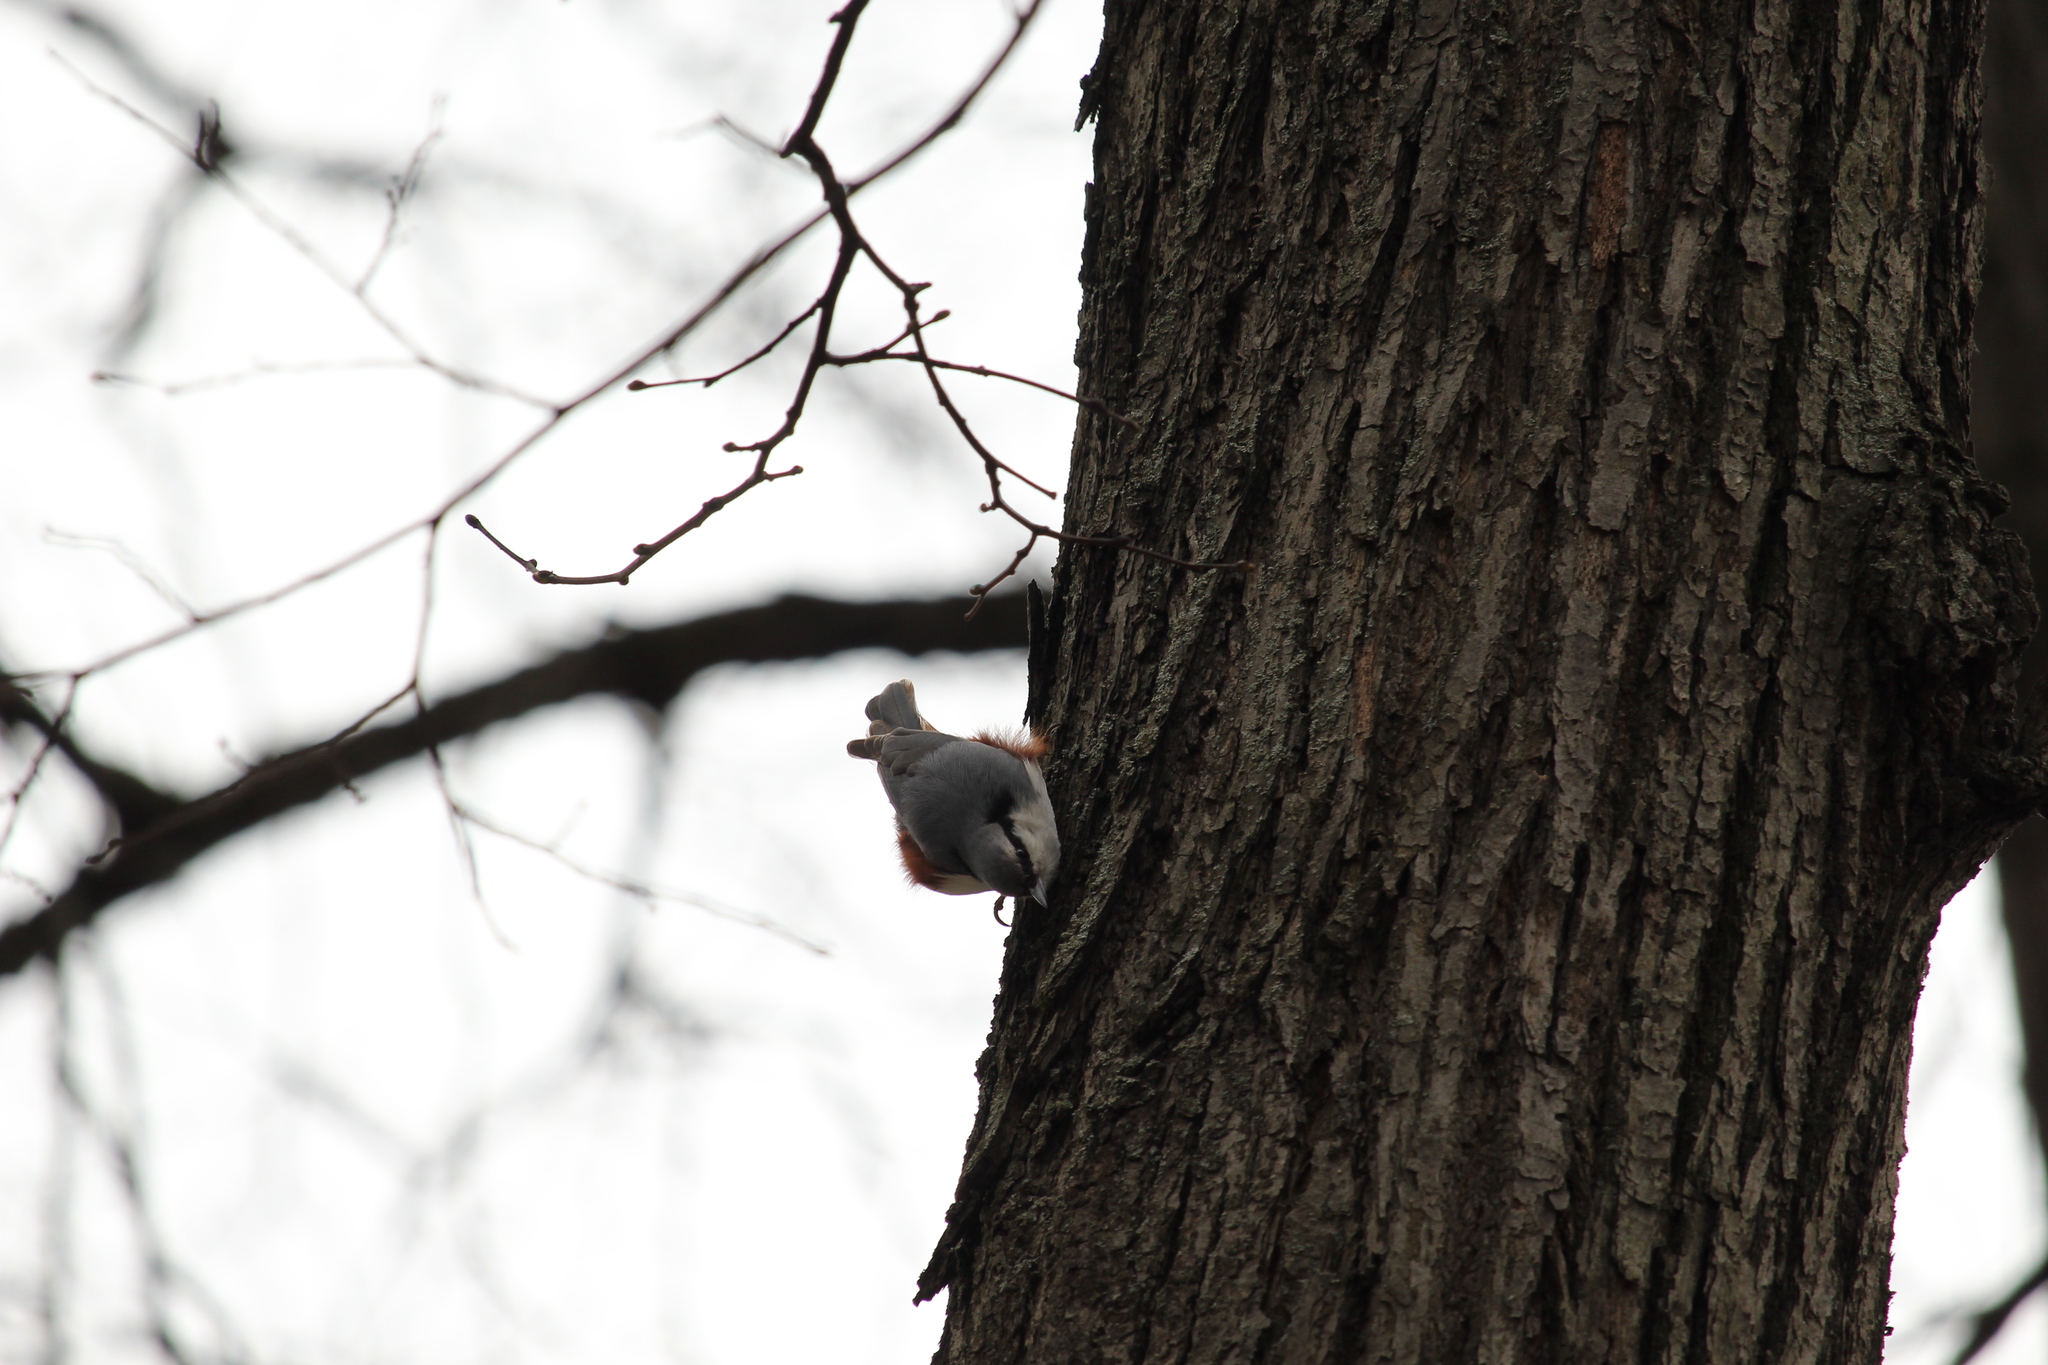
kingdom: Animalia
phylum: Chordata
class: Aves
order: Passeriformes
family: Sittidae
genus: Sitta
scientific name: Sitta europaea
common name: Eurasian nuthatch
